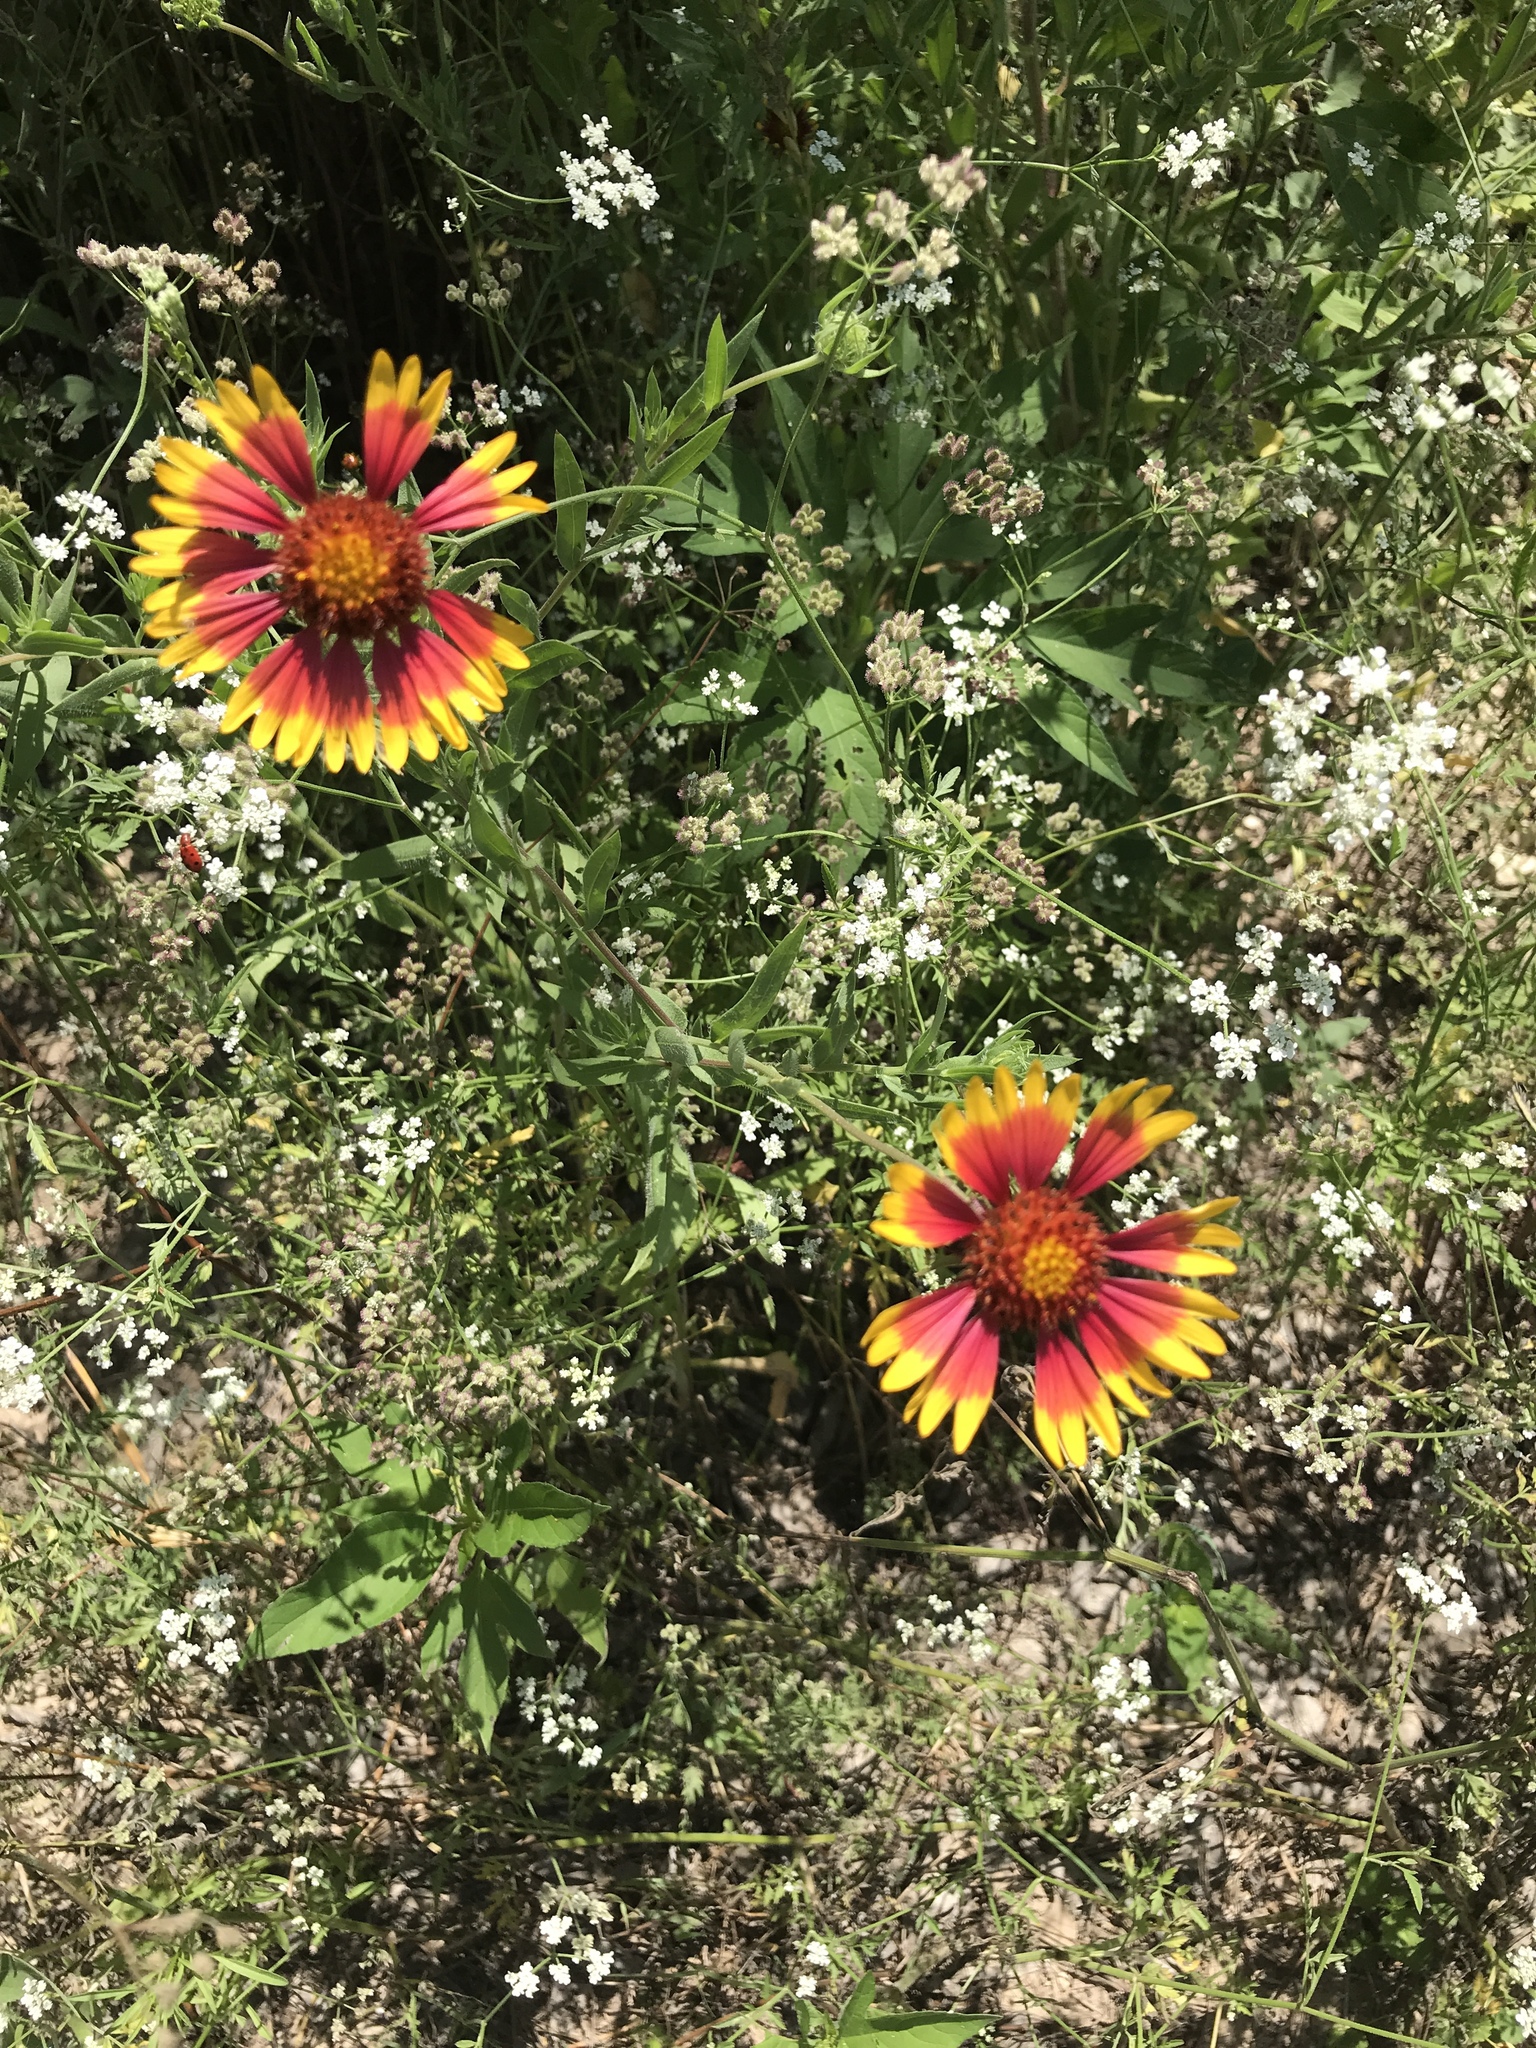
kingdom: Plantae
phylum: Tracheophyta
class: Magnoliopsida
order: Asterales
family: Asteraceae
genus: Gaillardia
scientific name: Gaillardia pulchella
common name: Firewheel
